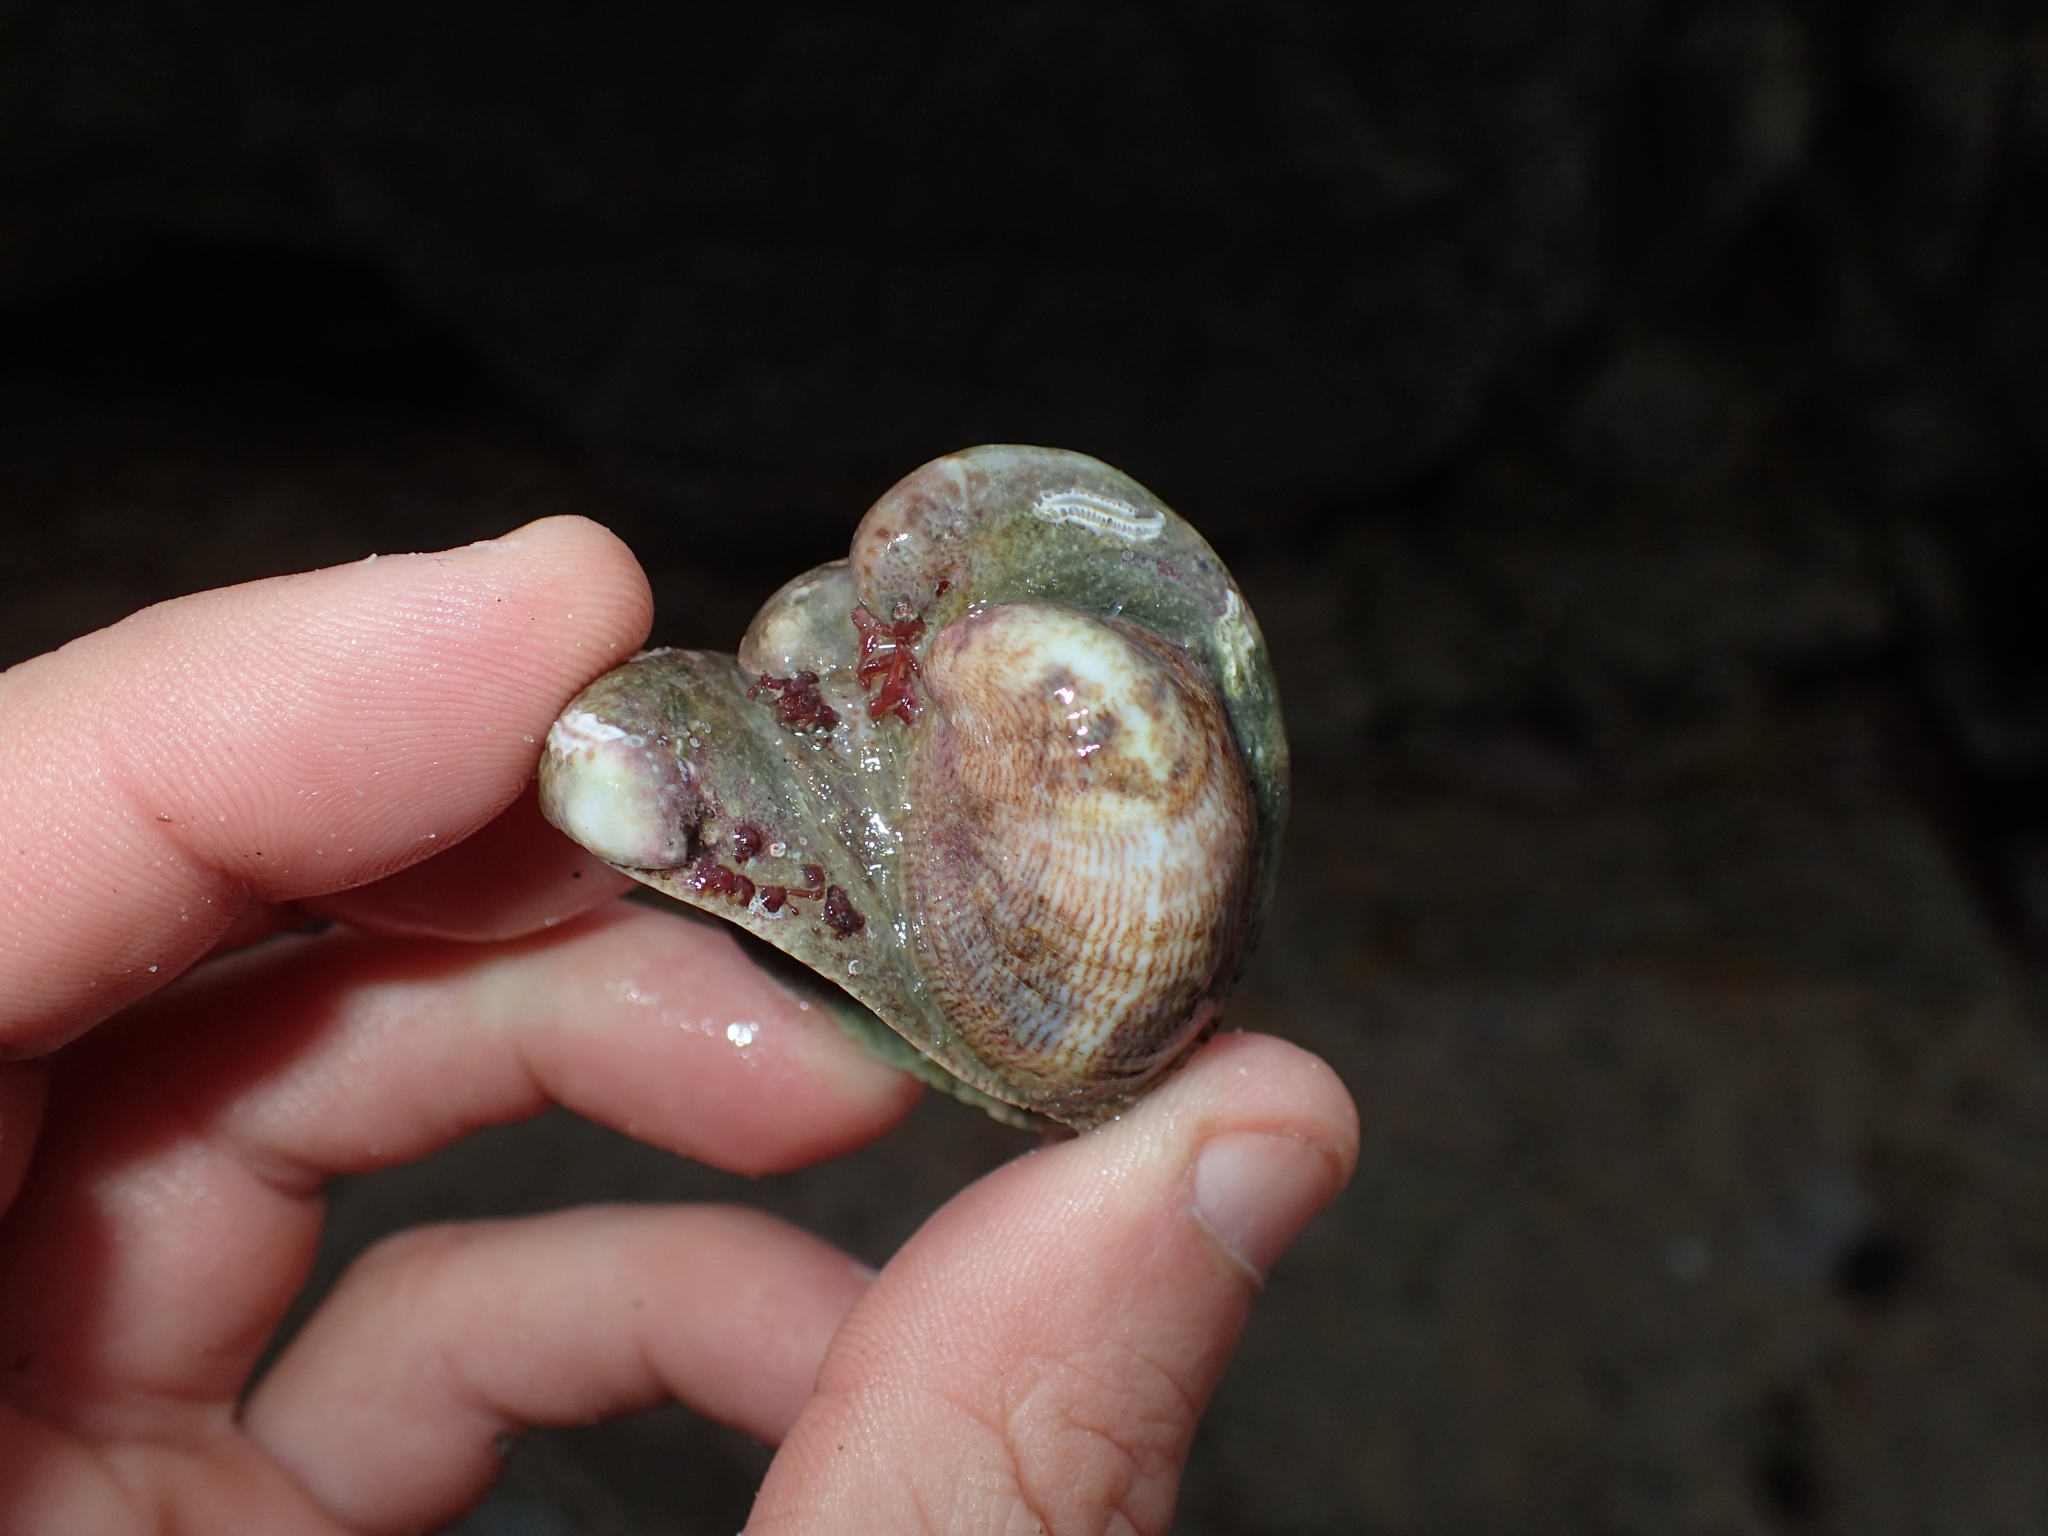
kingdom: Animalia
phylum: Mollusca
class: Gastropoda
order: Littorinimorpha
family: Calyptraeidae
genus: Crepidula
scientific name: Crepidula fornicata
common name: Slipper limpet
